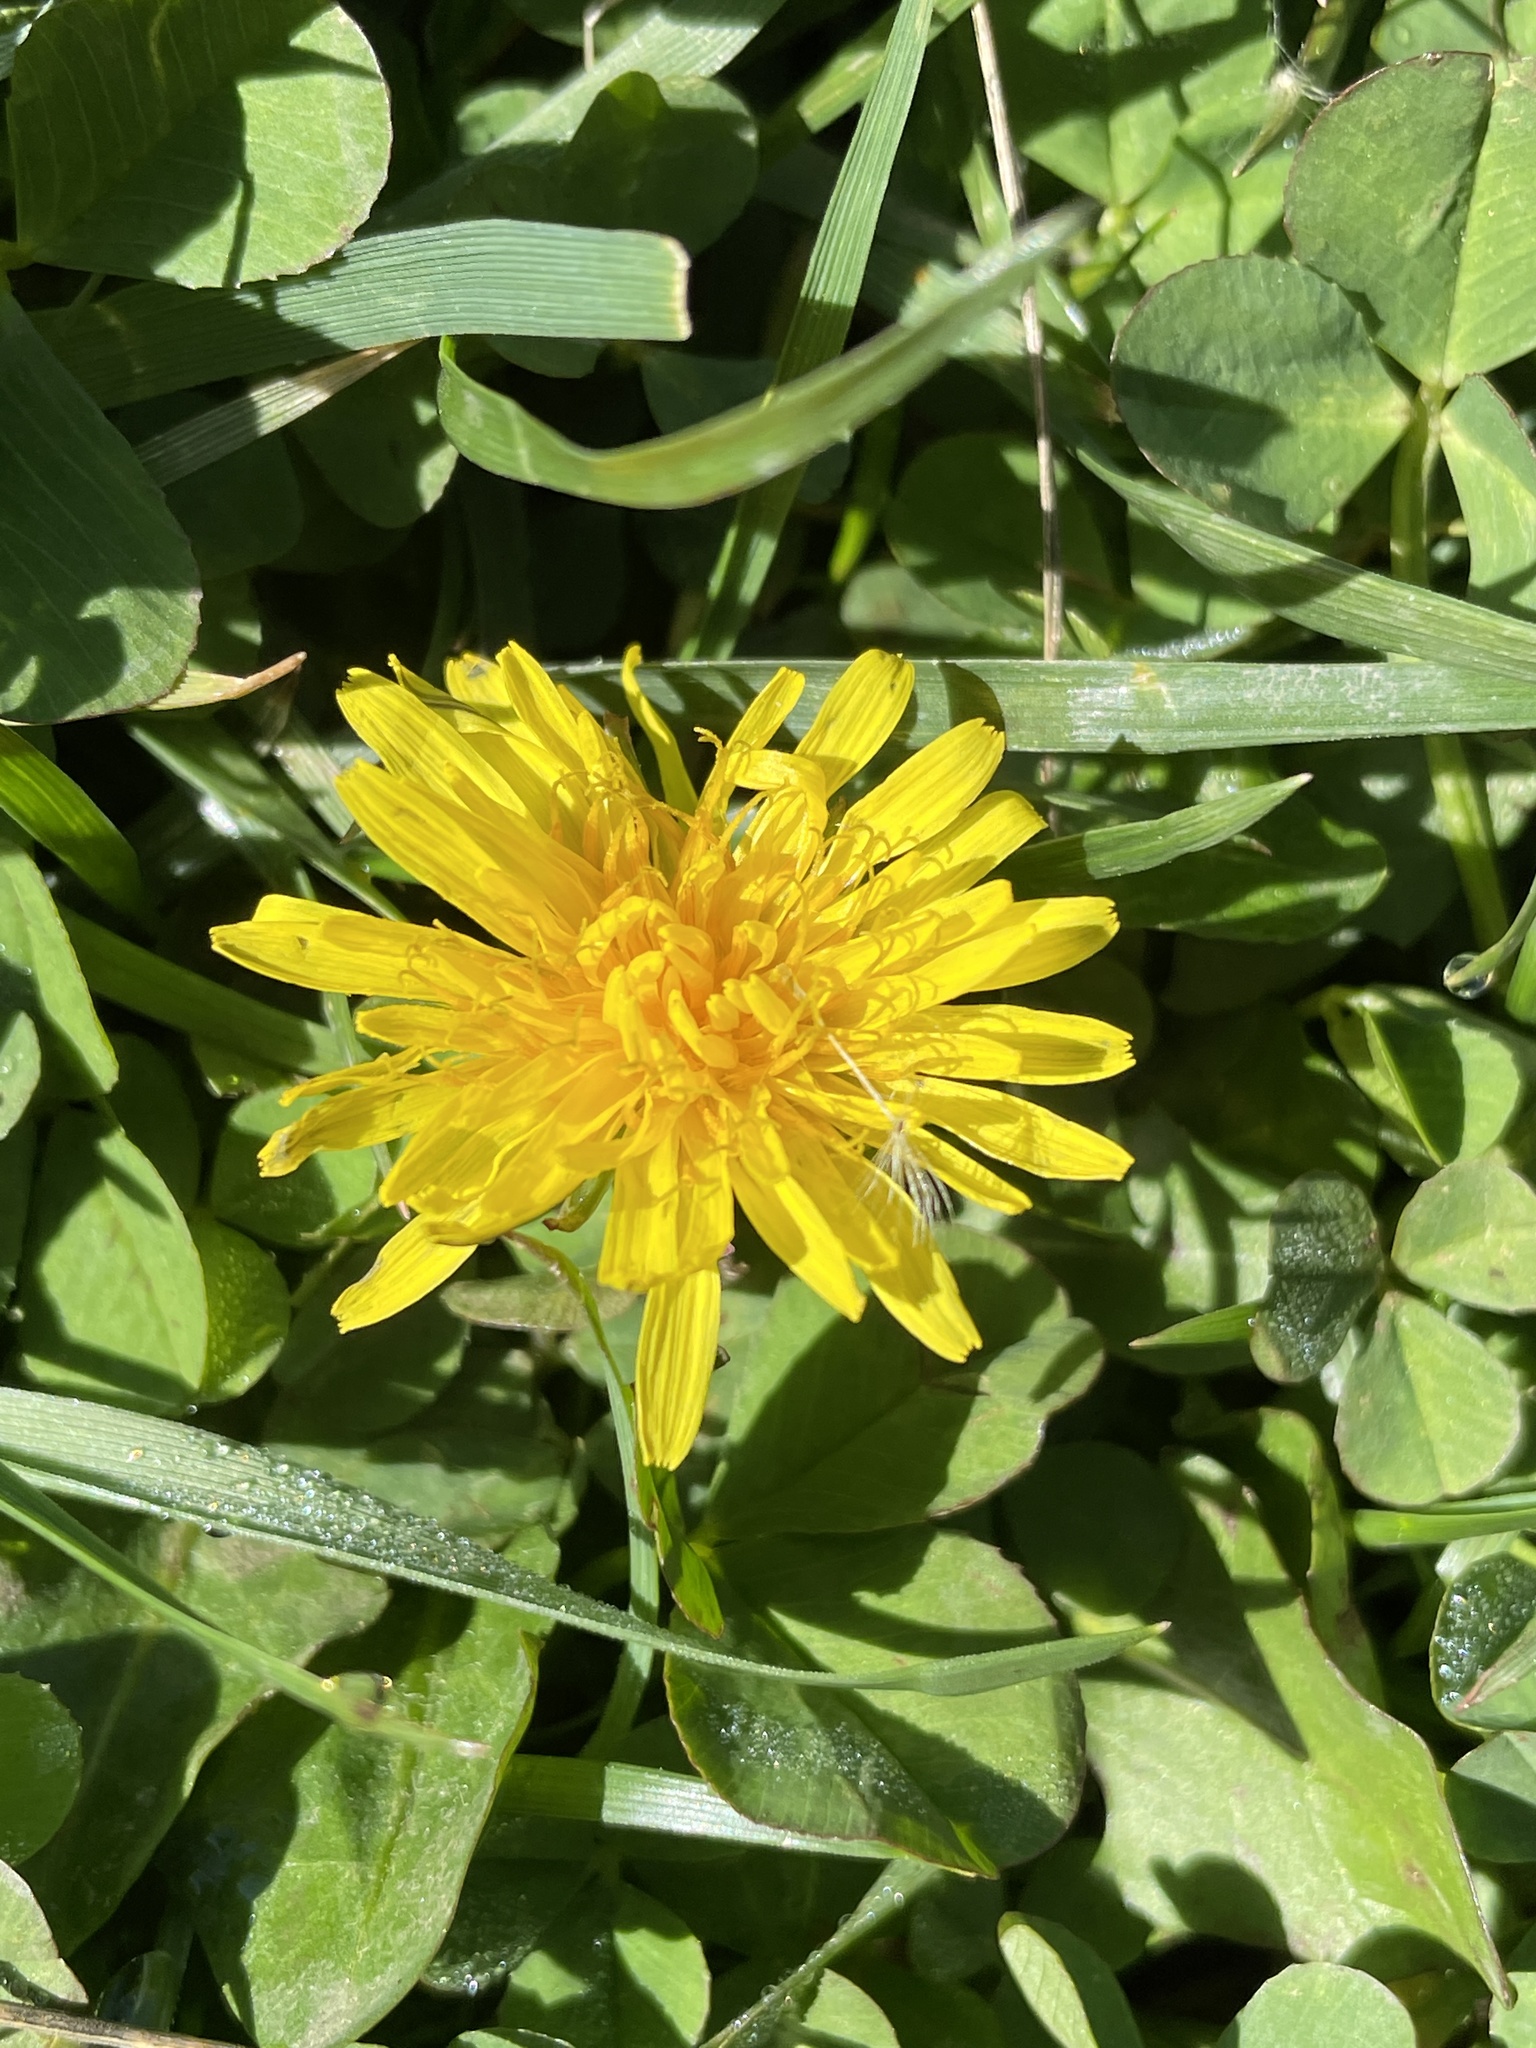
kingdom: Plantae
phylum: Tracheophyta
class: Magnoliopsida
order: Asterales
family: Asteraceae
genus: Taraxacum
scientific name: Taraxacum
